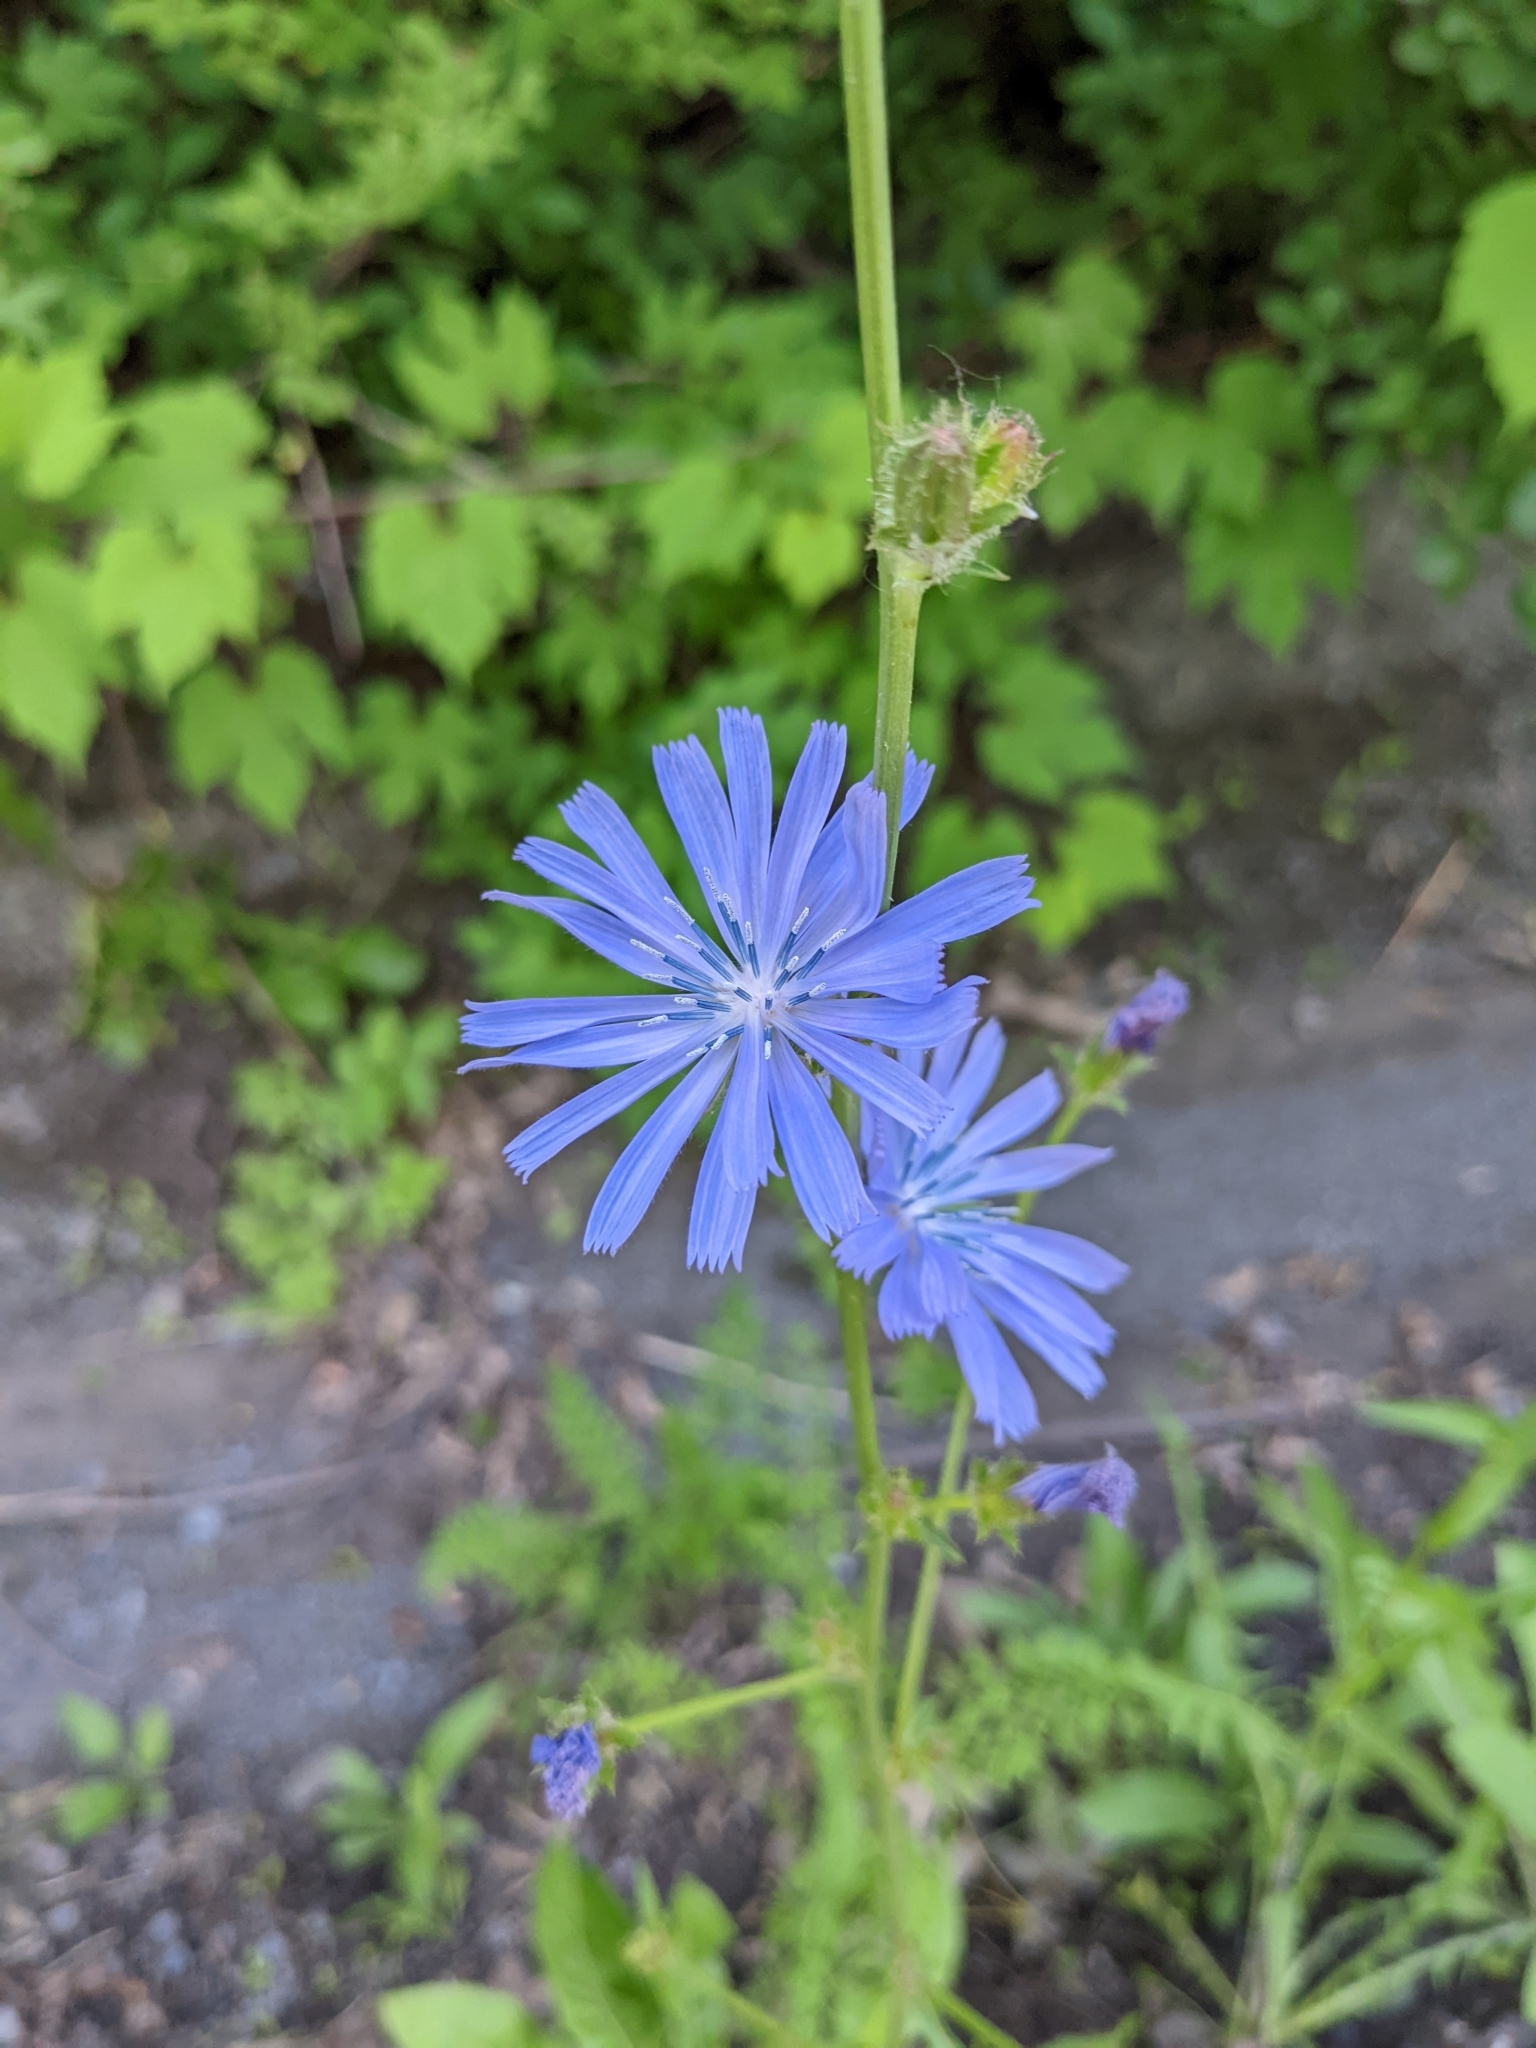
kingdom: Plantae
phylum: Tracheophyta
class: Magnoliopsida
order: Asterales
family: Asteraceae
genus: Cichorium
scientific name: Cichorium intybus
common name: Chicory
